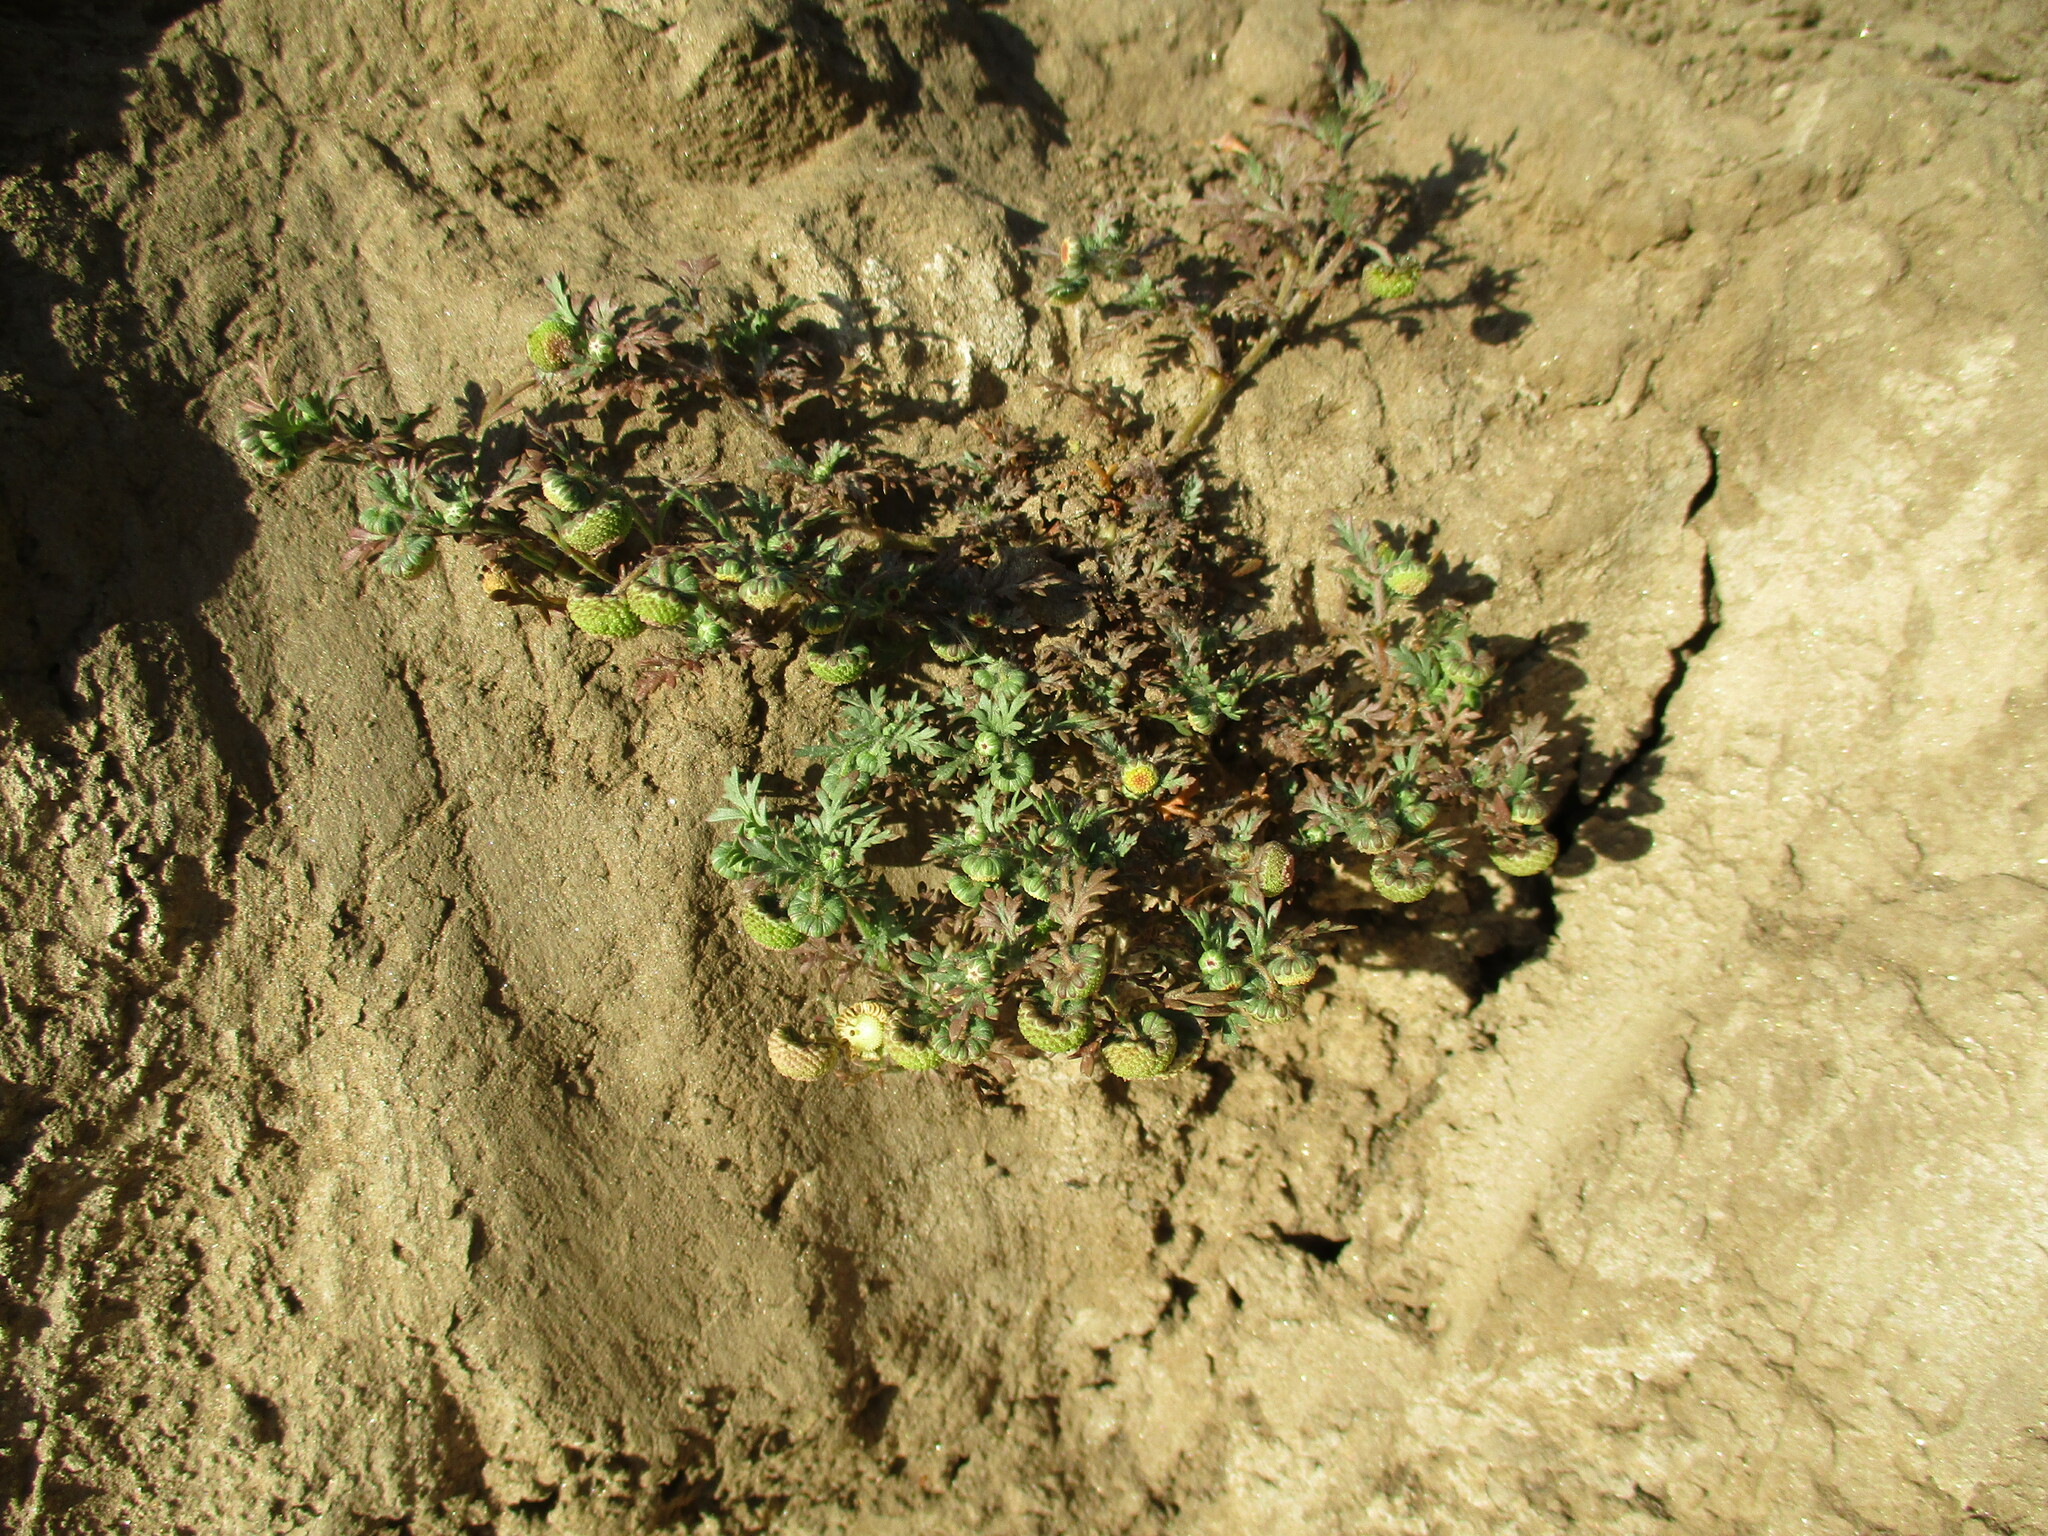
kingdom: Plantae
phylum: Tracheophyta
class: Magnoliopsida
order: Asterales
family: Asteraceae
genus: Cotula
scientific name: Cotula anthemoides
